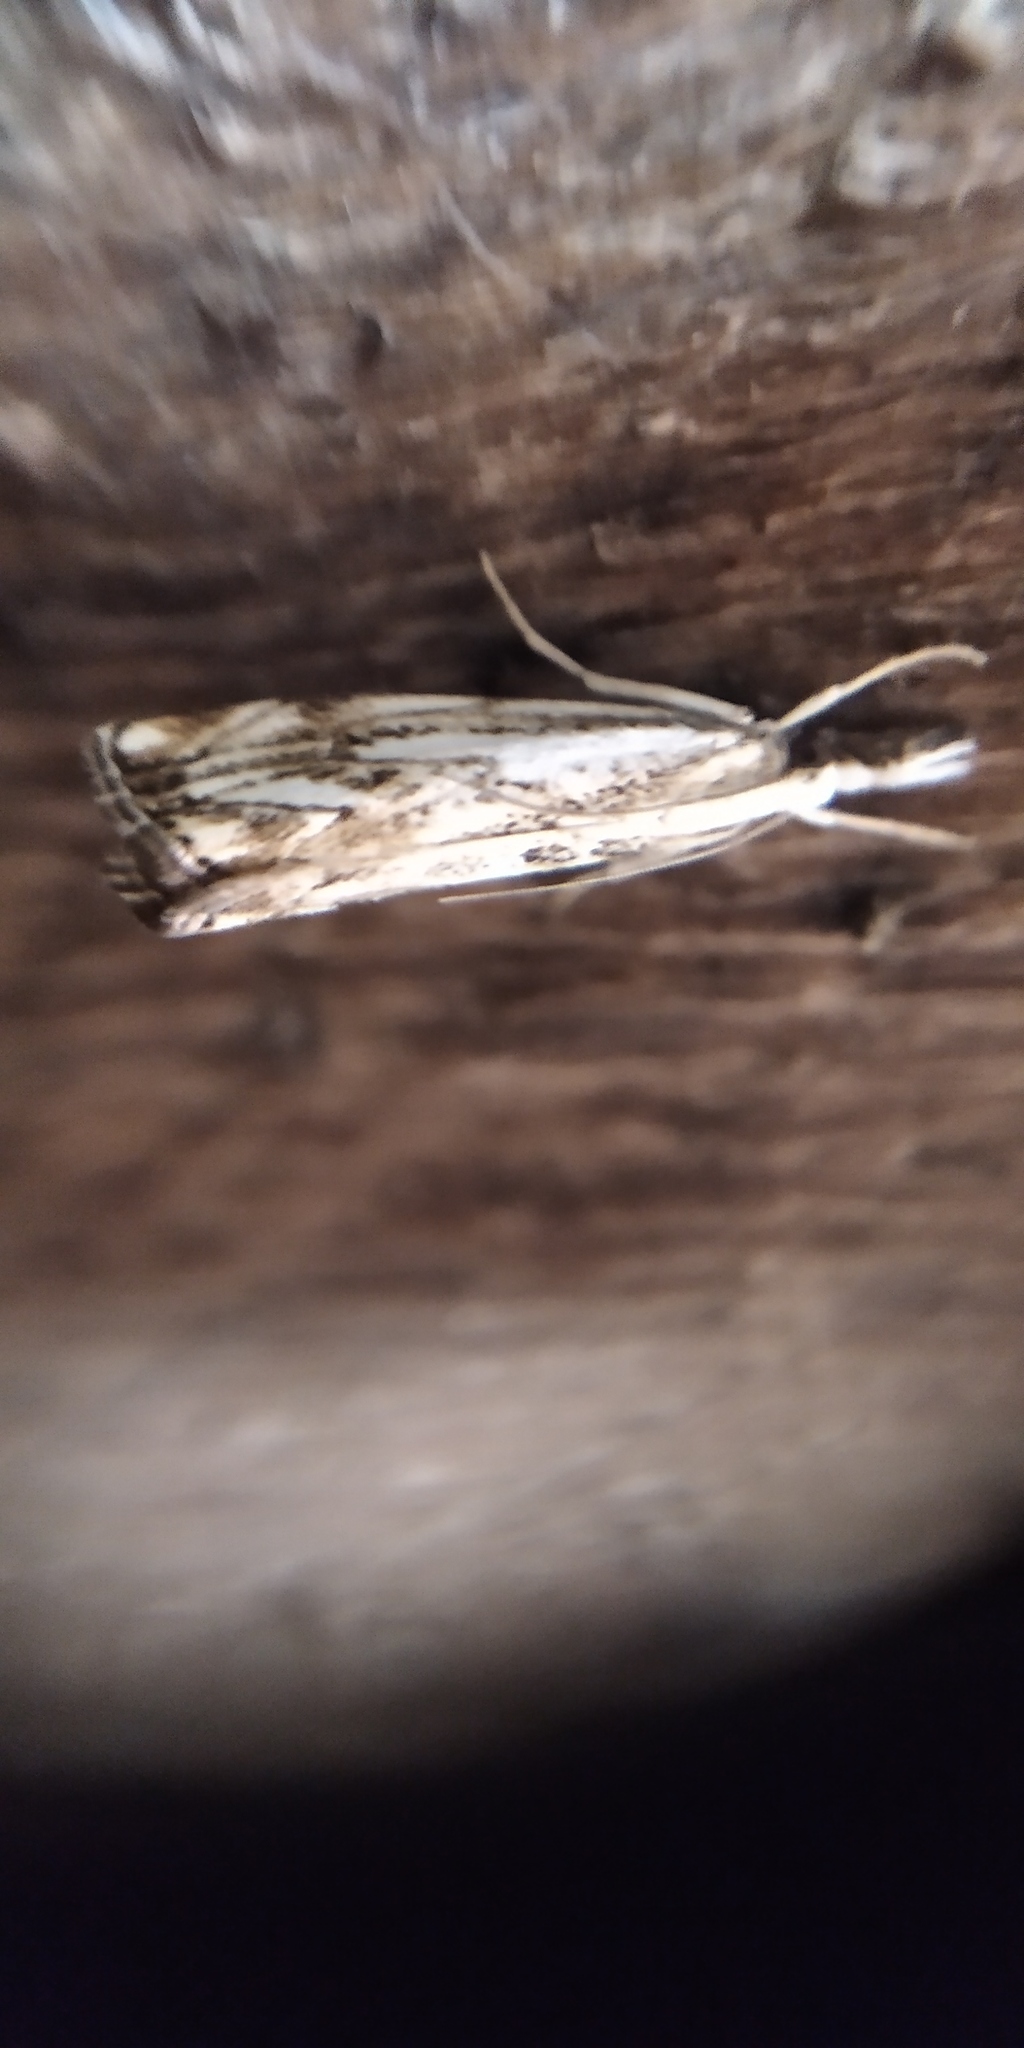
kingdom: Animalia
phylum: Arthropoda
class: Insecta
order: Lepidoptera
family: Crambidae
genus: Catoptria
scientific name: Catoptria falsella
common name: Chequered grass-veneer
